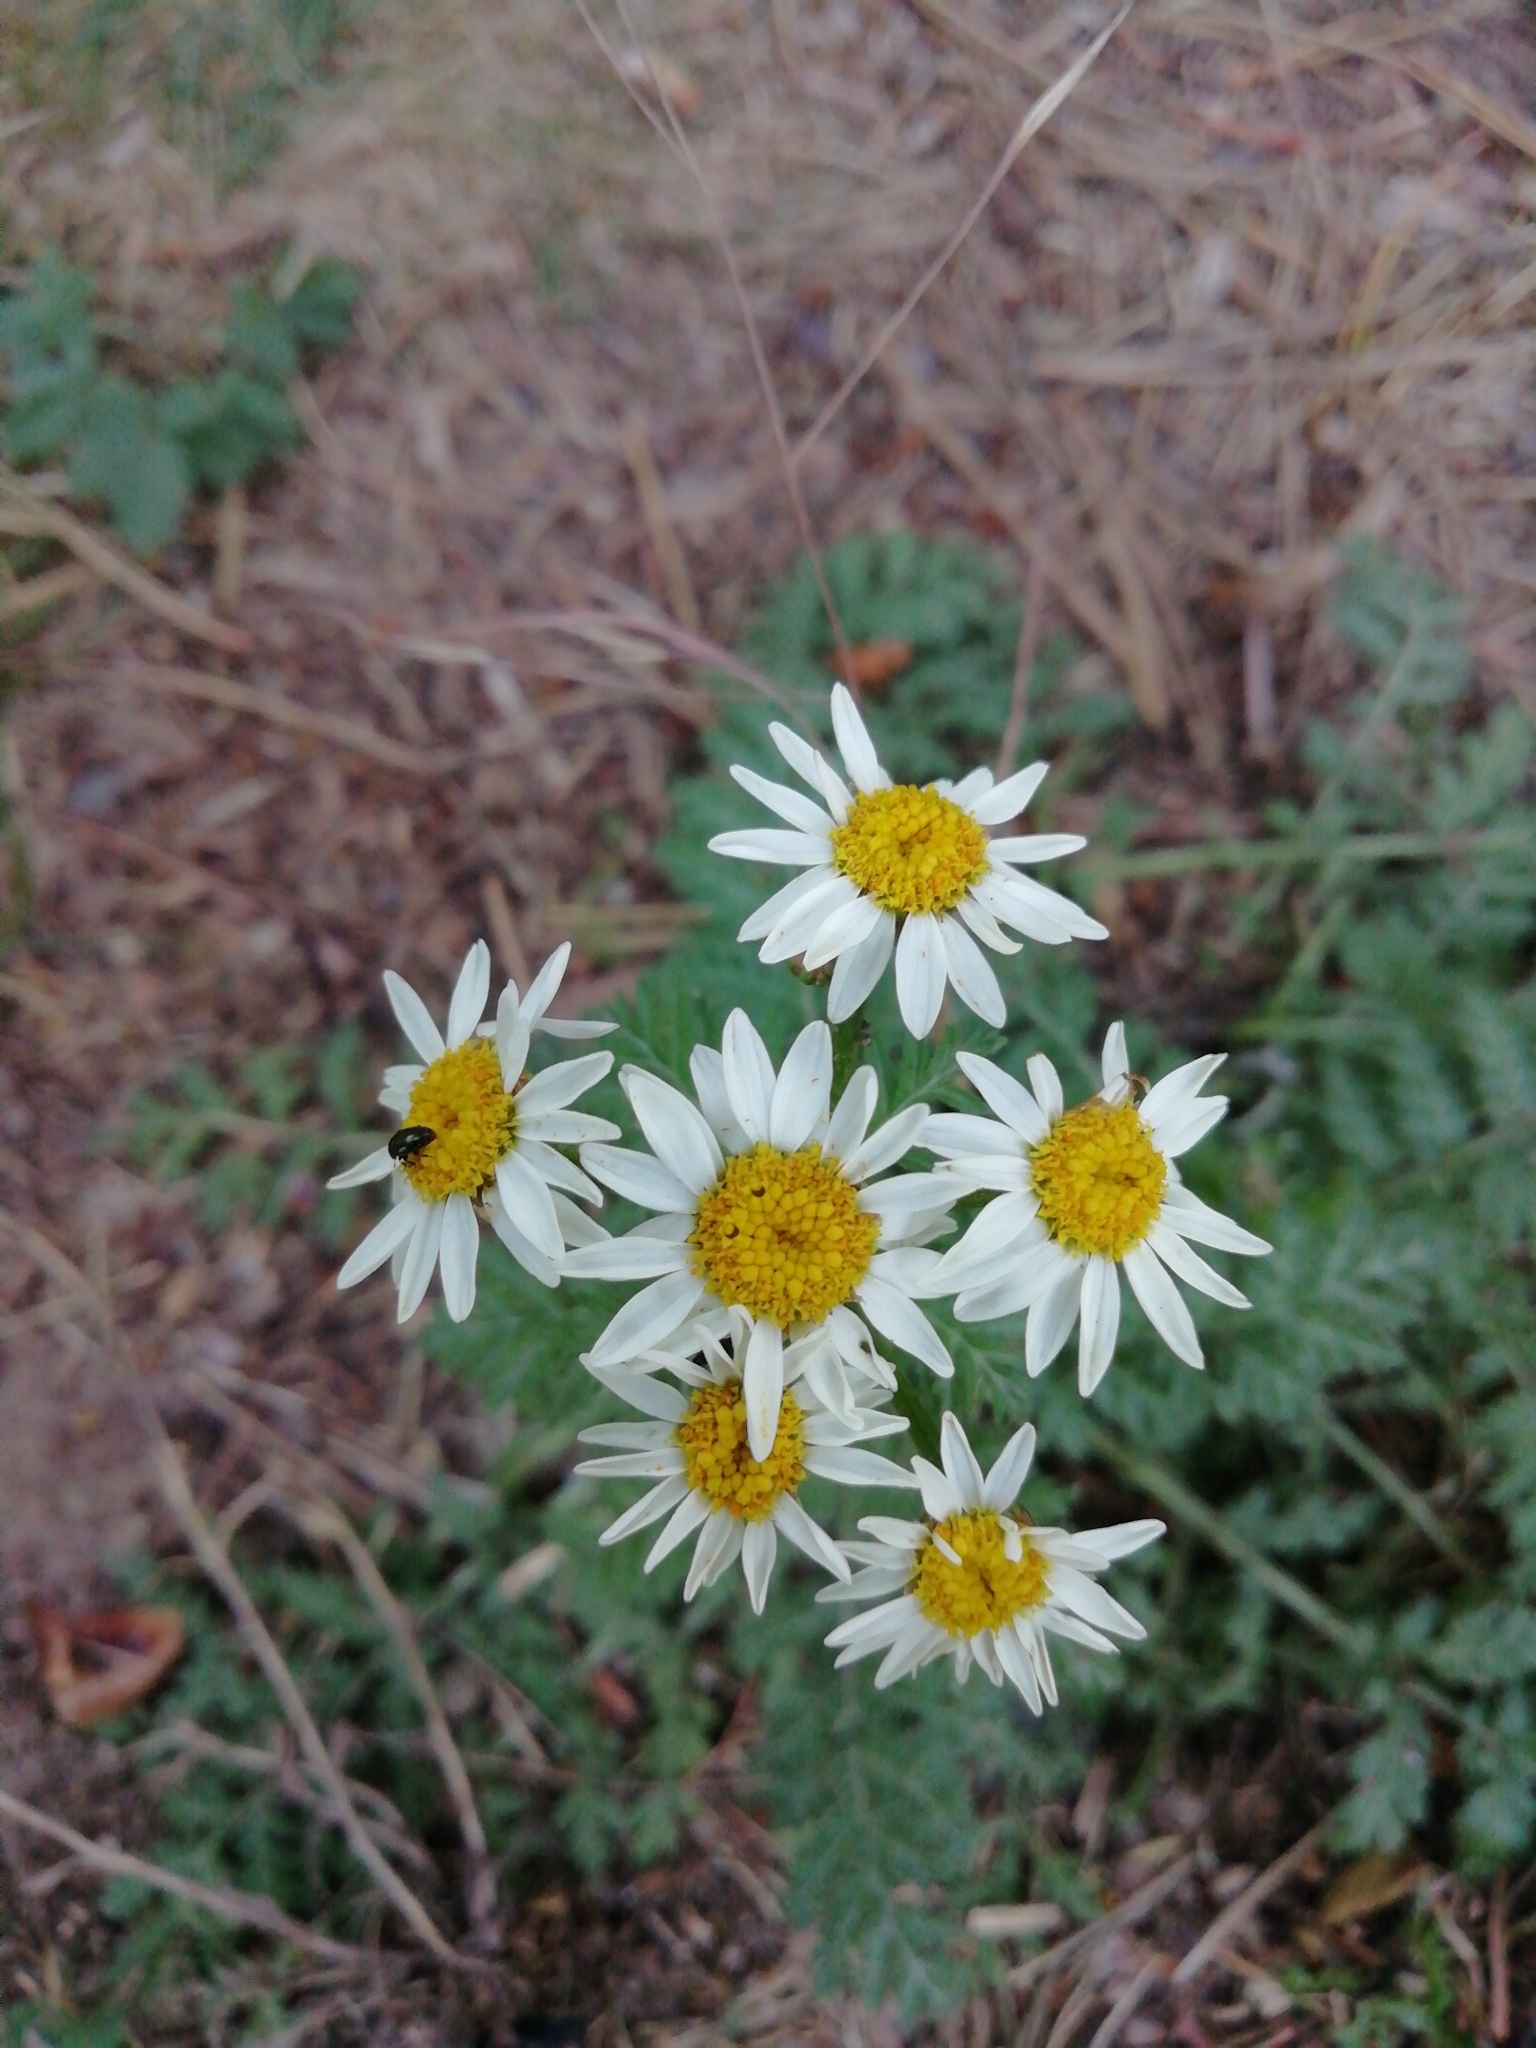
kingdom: Plantae
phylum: Tracheophyta
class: Magnoliopsida
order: Asterales
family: Asteraceae
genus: Tanacetum
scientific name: Tanacetum corymbosum
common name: Scentless feverfew
